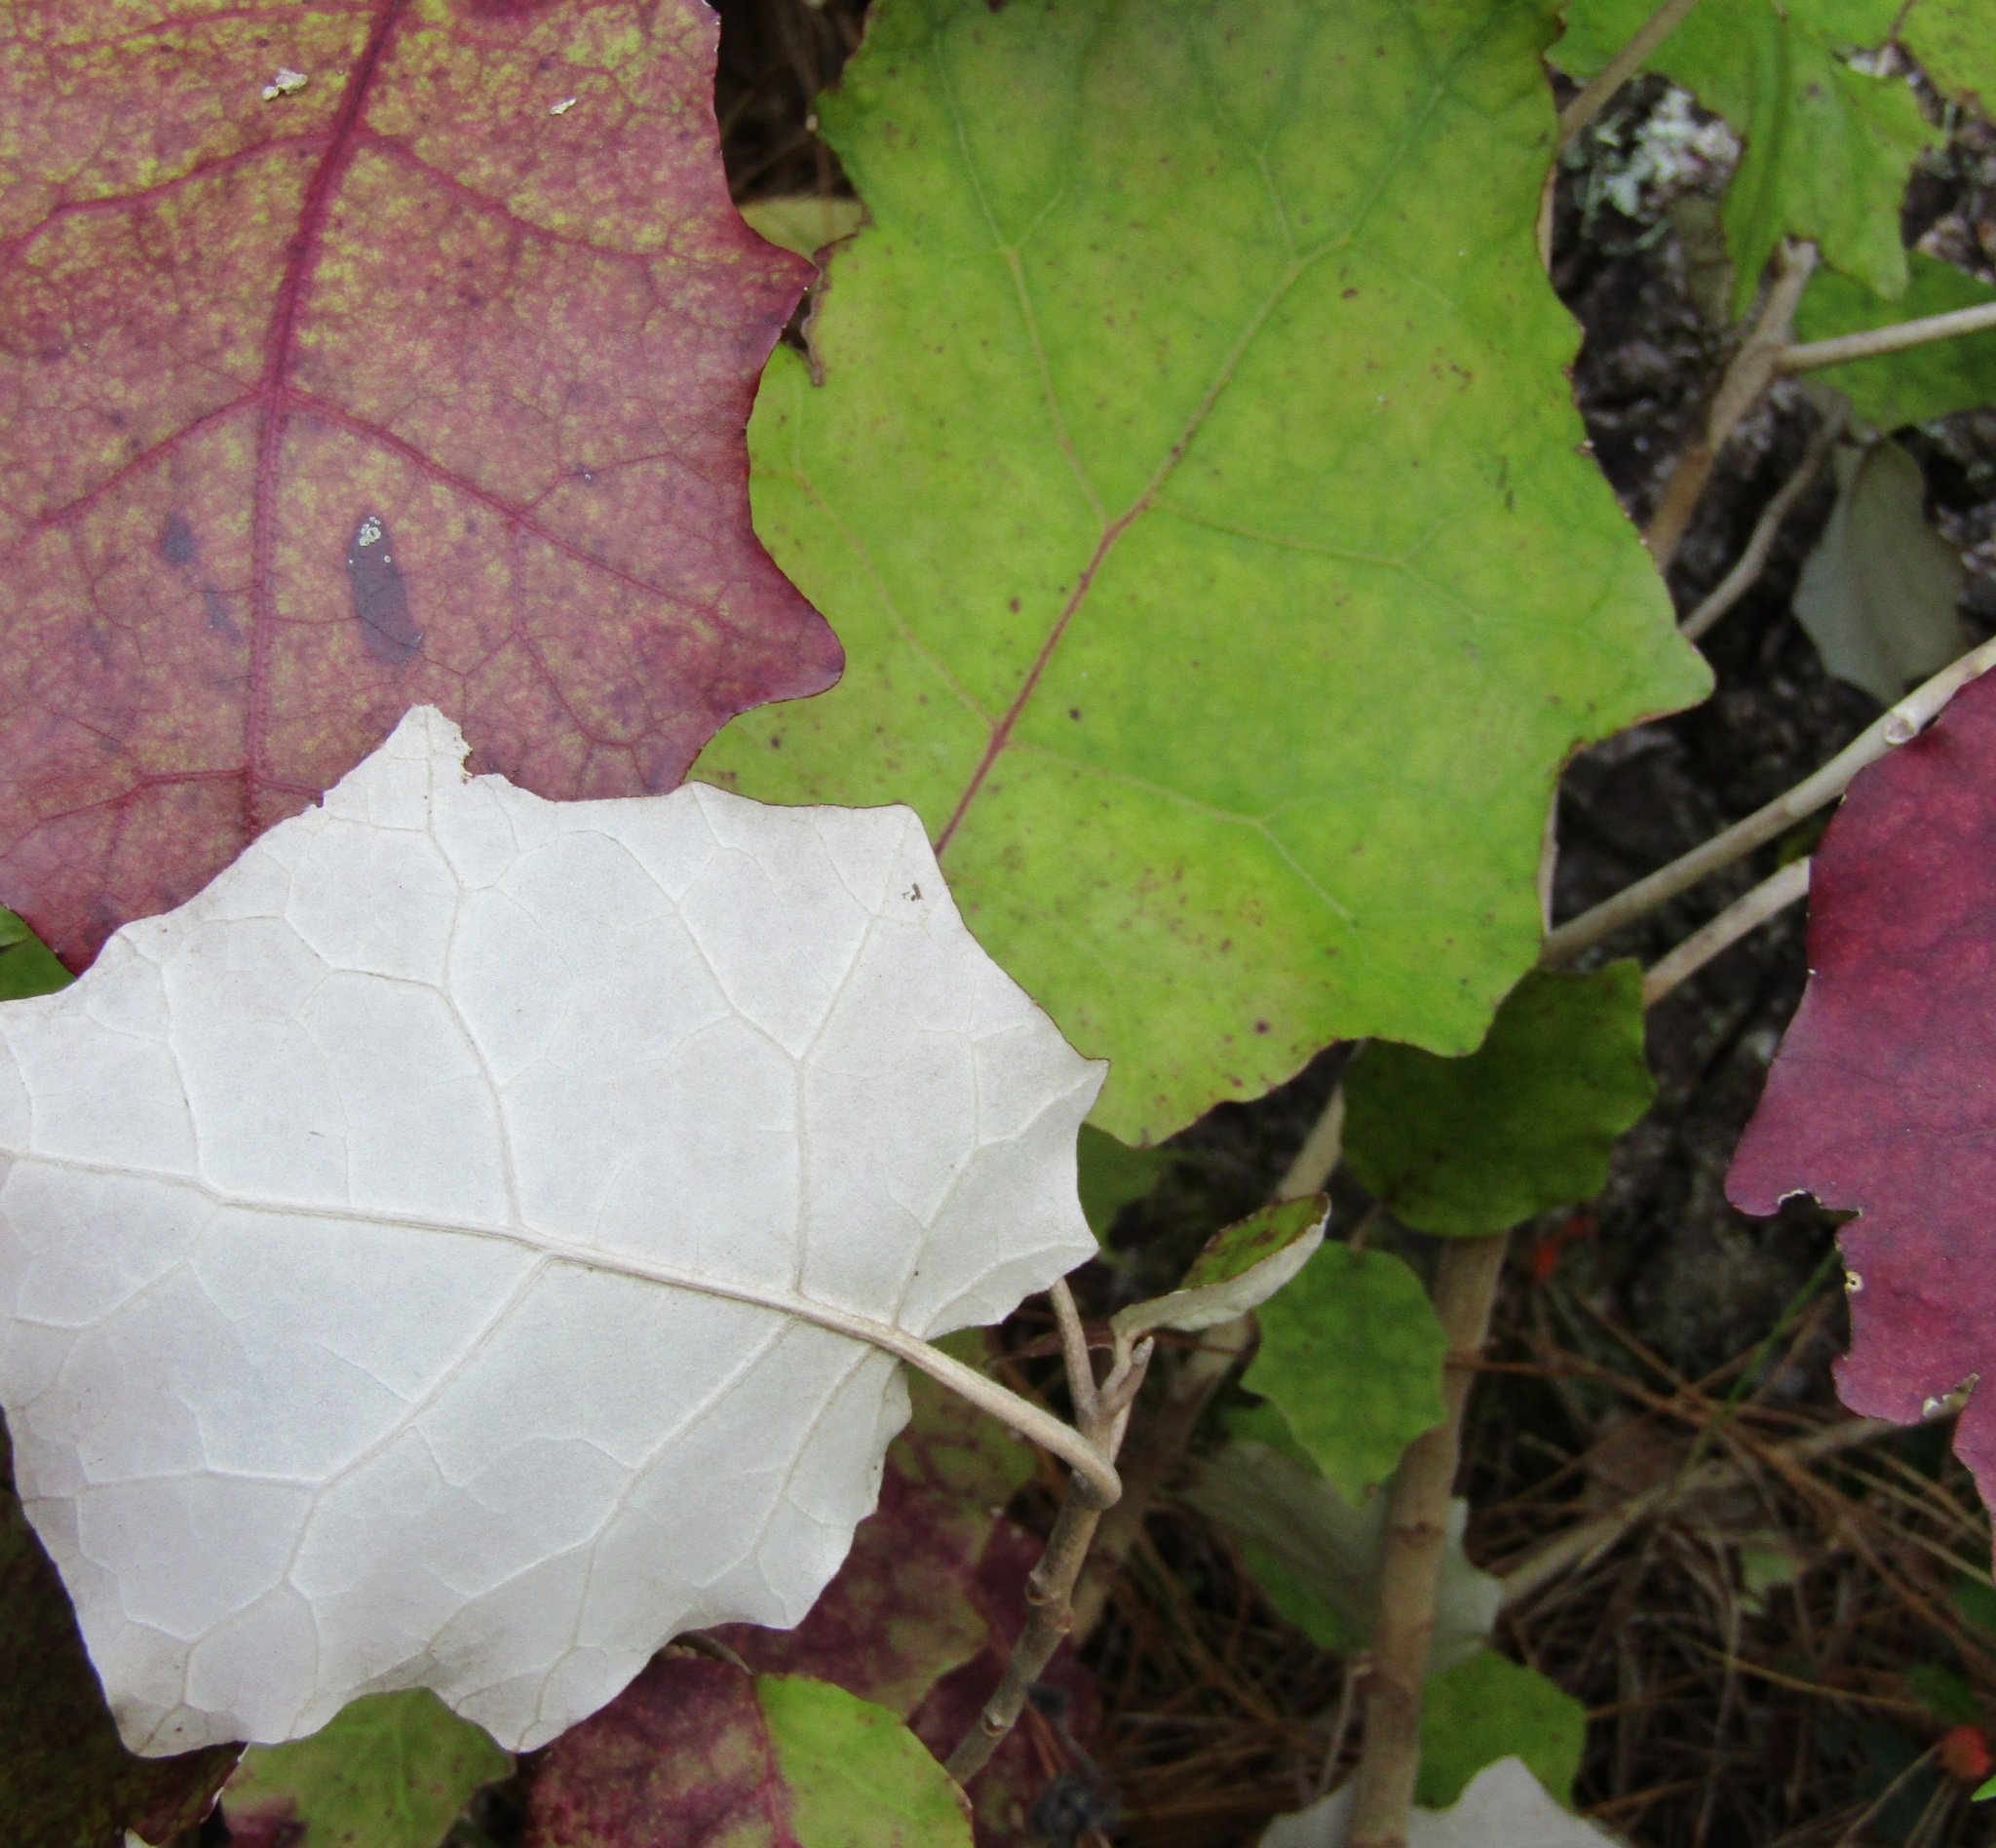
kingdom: Plantae
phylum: Tracheophyta
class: Magnoliopsida
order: Asterales
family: Asteraceae
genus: Brachyglottis
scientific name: Brachyglottis repanda
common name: Hedge ragwort
